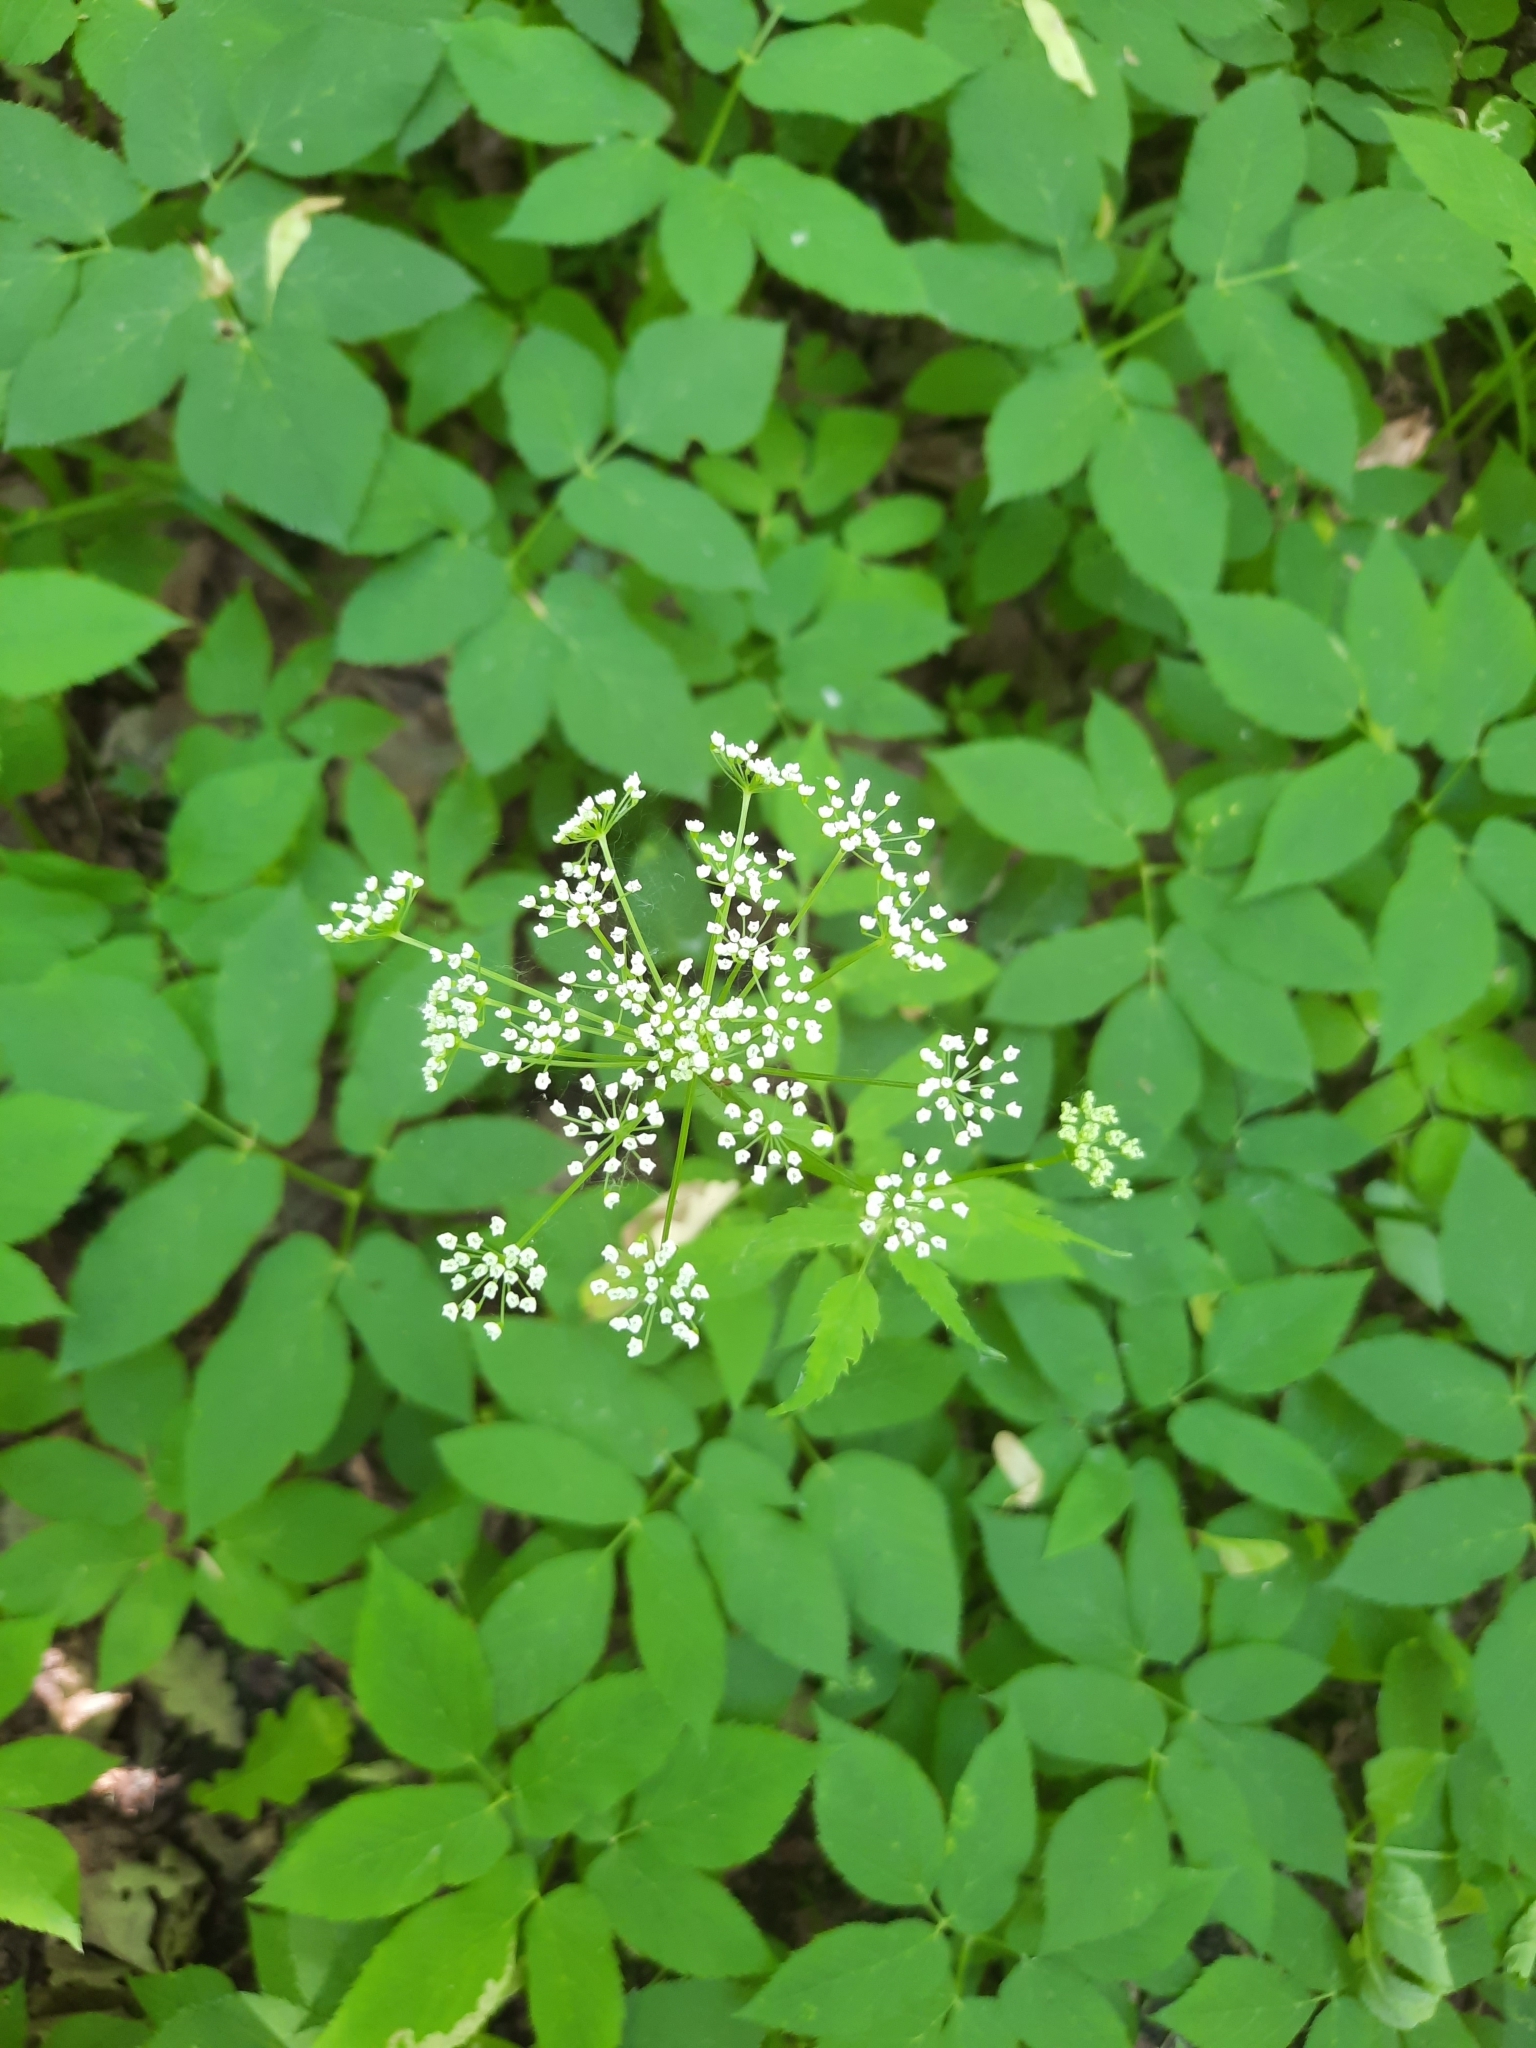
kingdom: Plantae
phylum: Tracheophyta
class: Magnoliopsida
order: Apiales
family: Apiaceae
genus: Aegopodium
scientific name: Aegopodium podagraria
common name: Ground-elder
